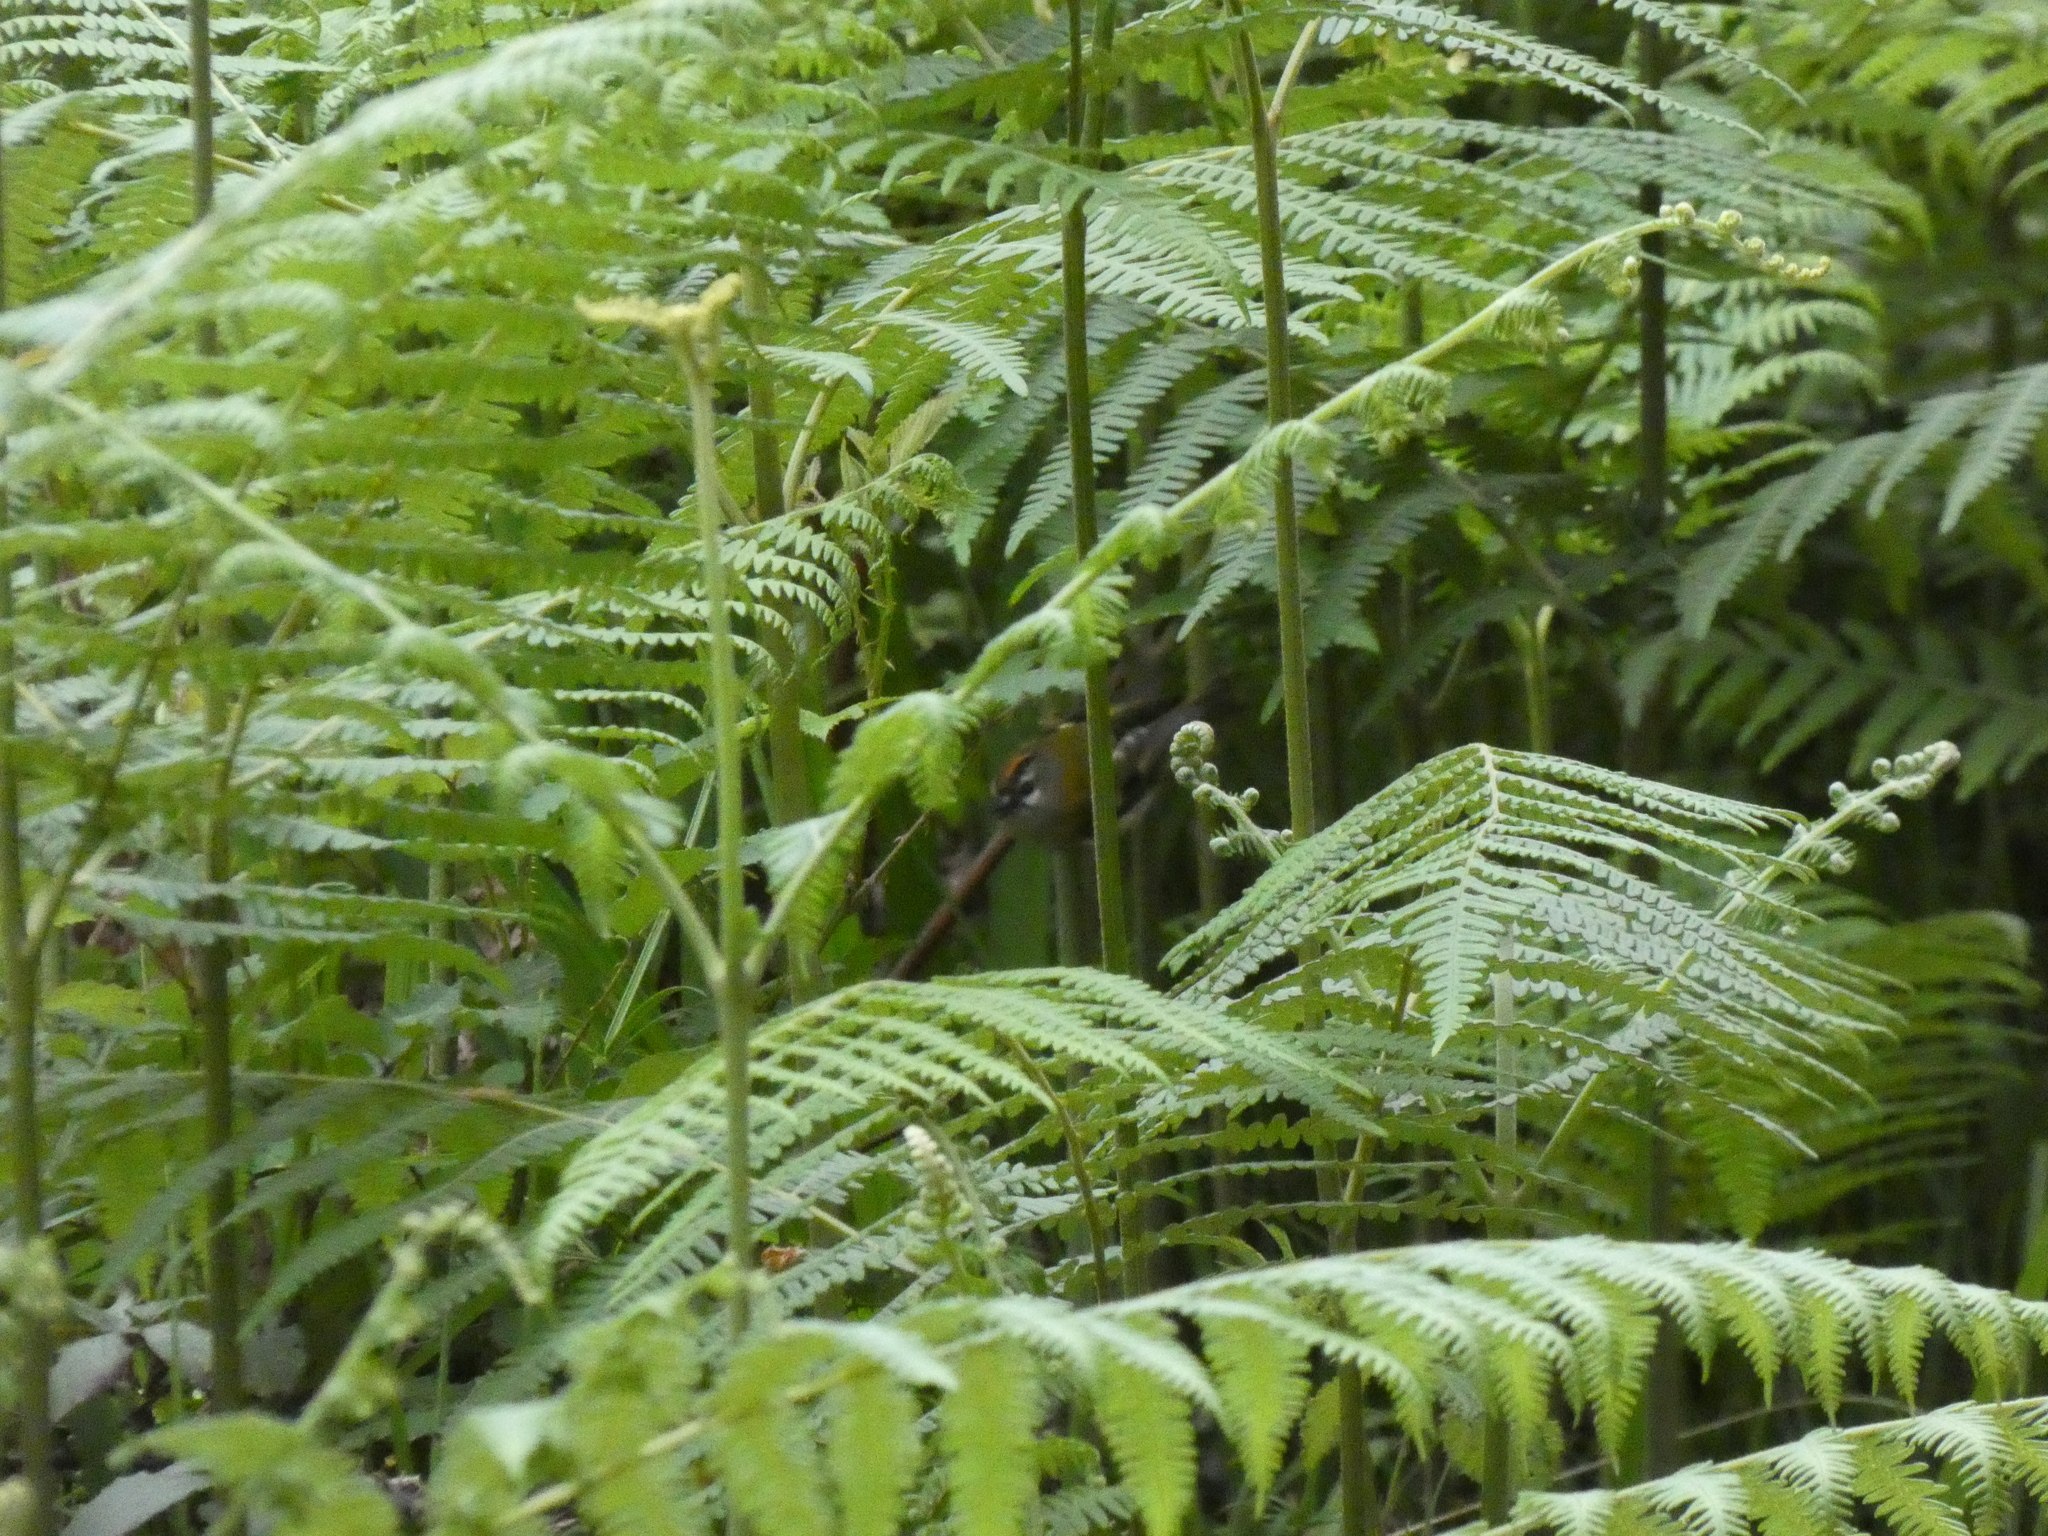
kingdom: Plantae
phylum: Tracheophyta
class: Polypodiopsida
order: Polypodiales
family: Dennstaedtiaceae
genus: Pteridium
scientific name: Pteridium aquilinum
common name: Bracken
